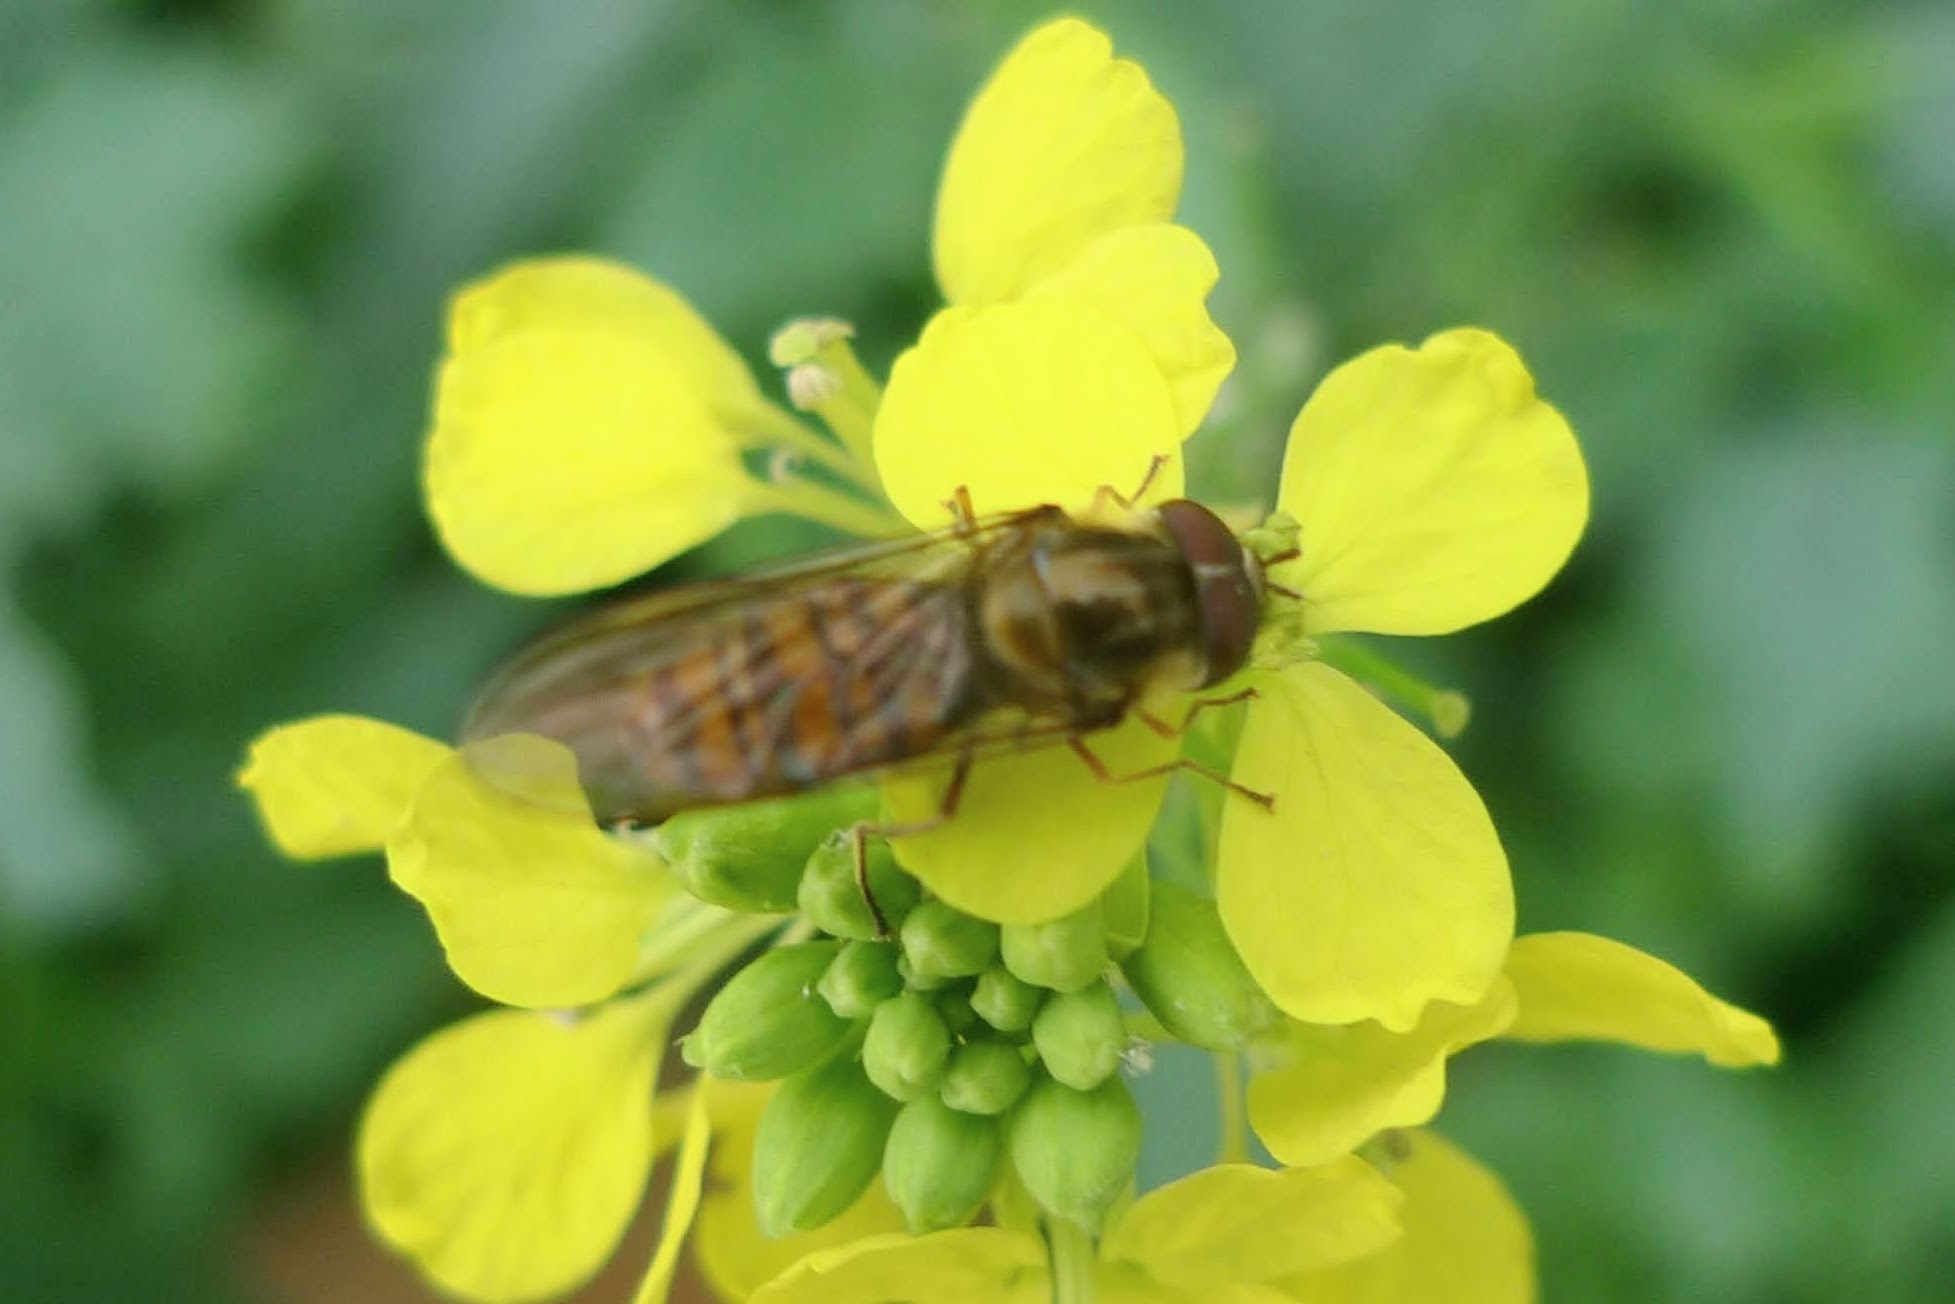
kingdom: Animalia
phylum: Arthropoda
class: Insecta
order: Diptera
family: Syrphidae
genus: Episyrphus
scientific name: Episyrphus balteatus
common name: Marmalade hoverfly
